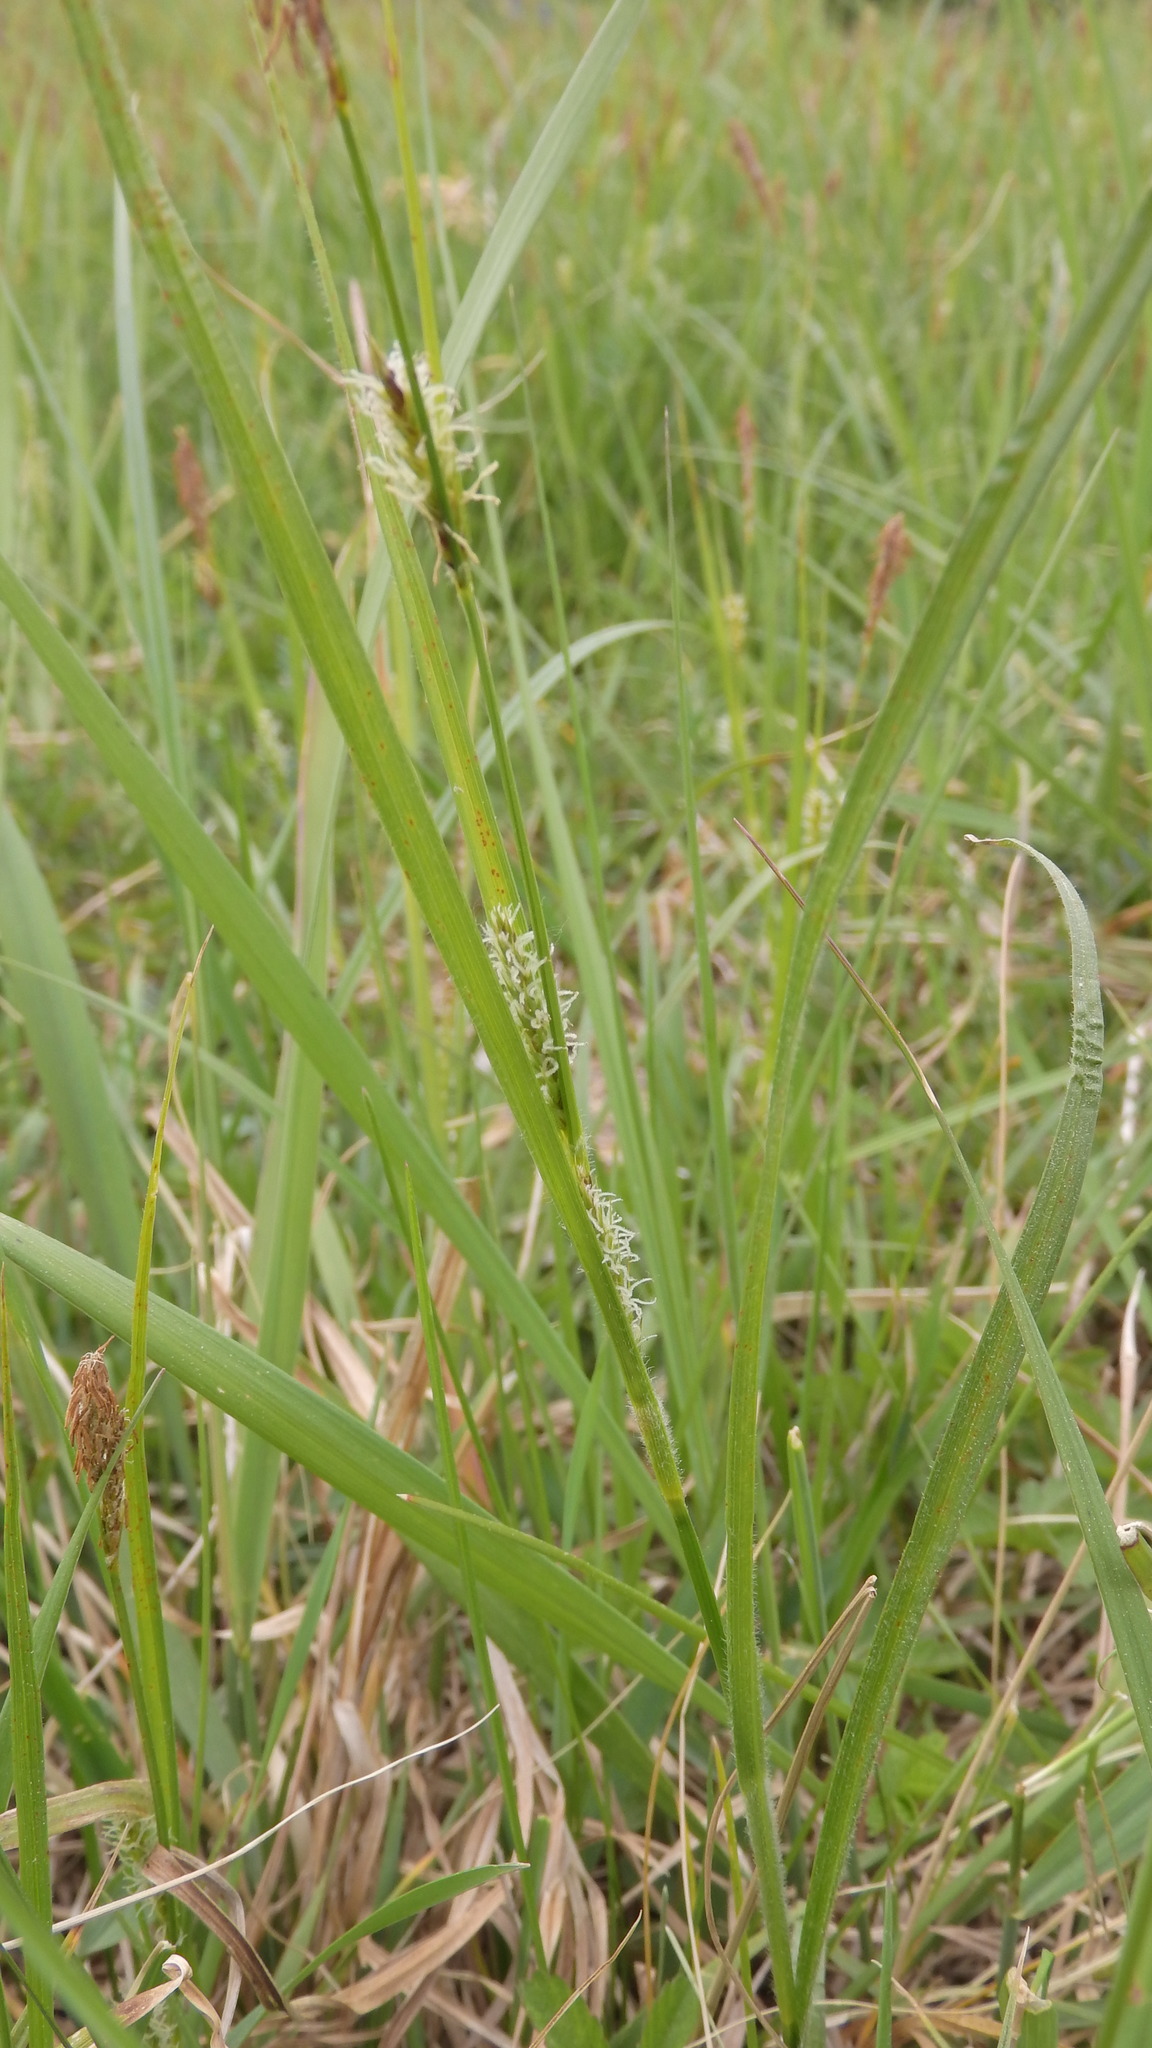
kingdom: Plantae
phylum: Tracheophyta
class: Liliopsida
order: Poales
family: Cyperaceae
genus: Carex
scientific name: Carex hirta
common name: Hairy sedge
